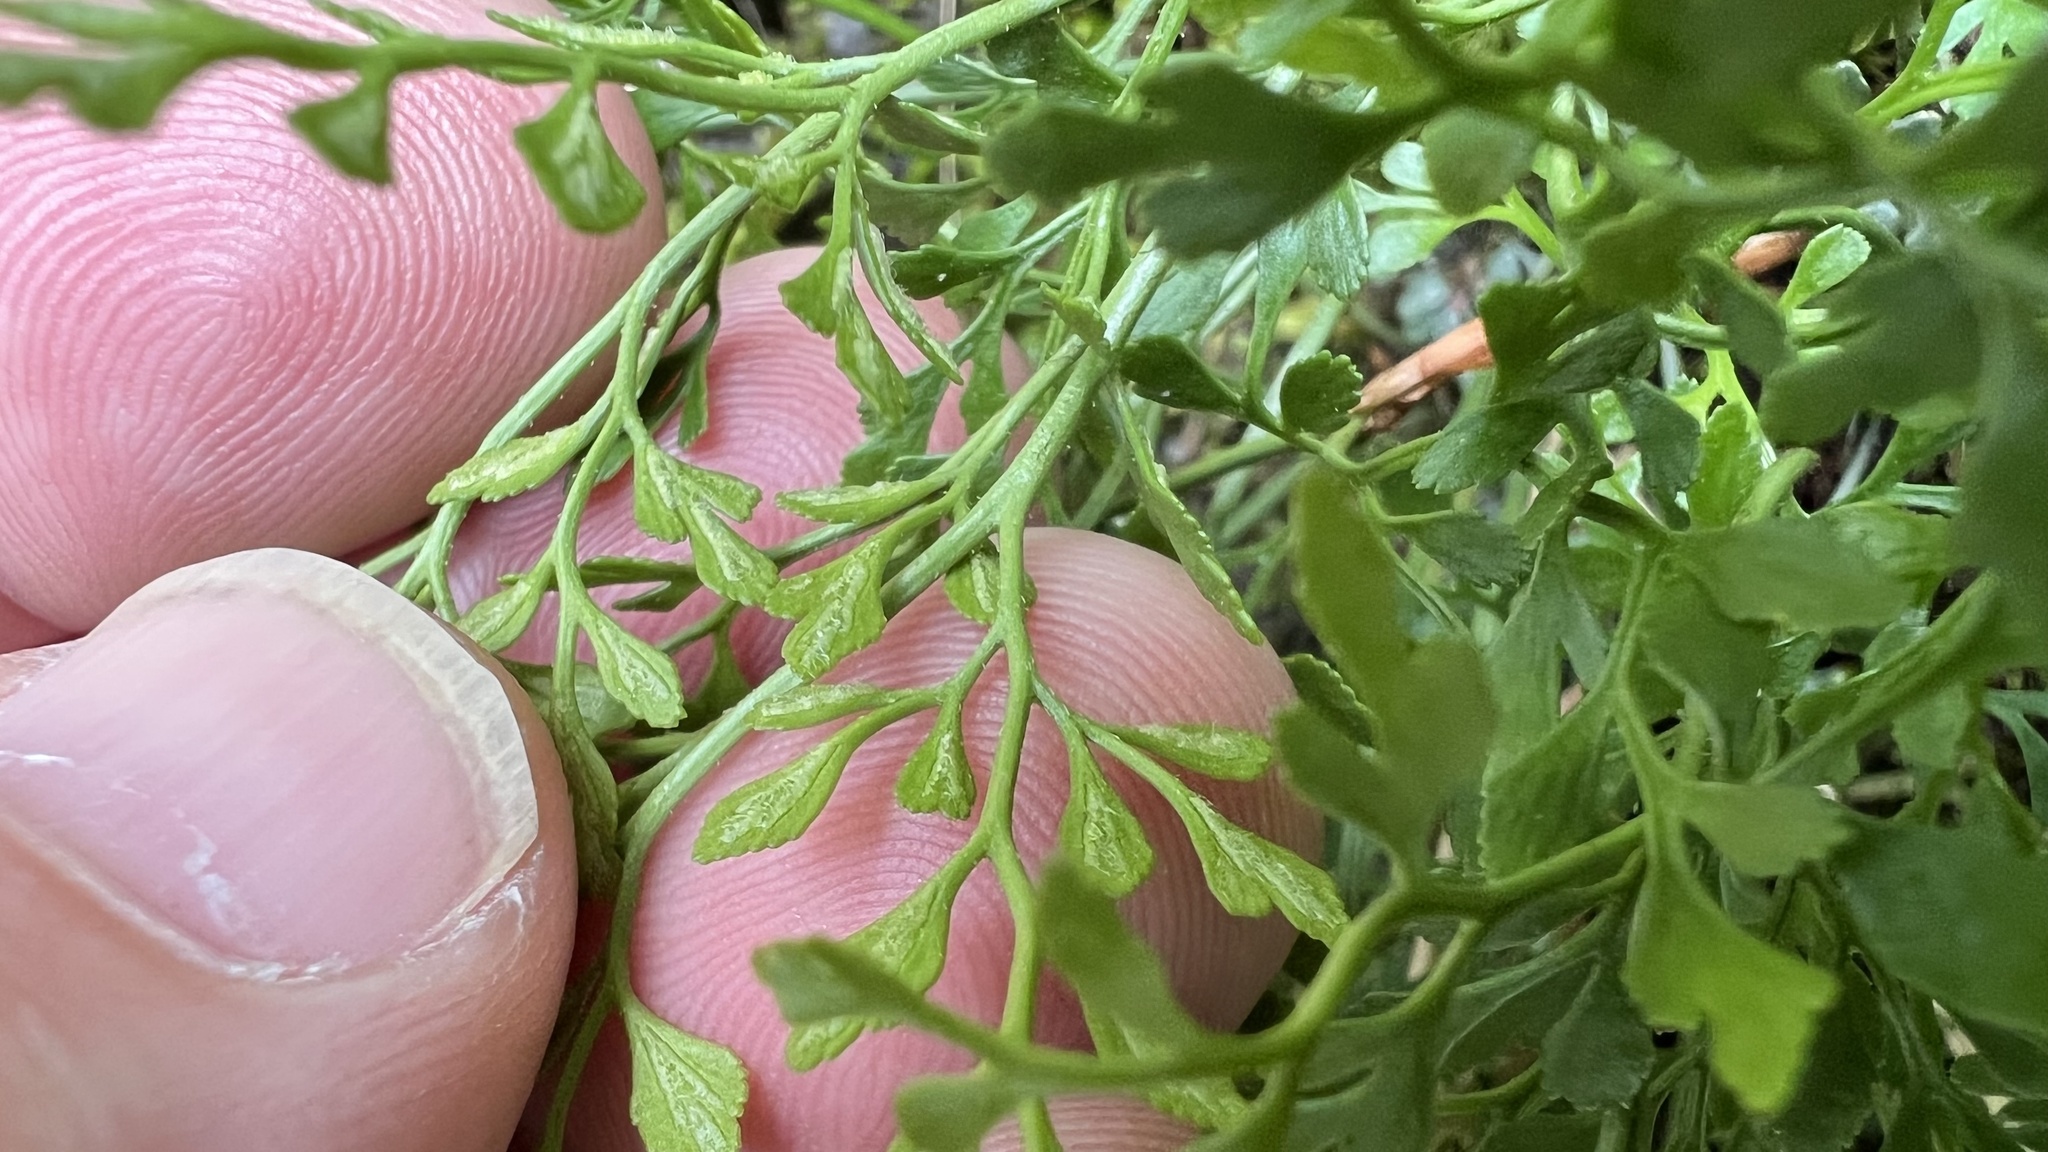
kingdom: Plantae
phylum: Tracheophyta
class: Polypodiopsida
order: Polypodiales
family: Aspleniaceae
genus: Asplenium
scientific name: Asplenium ruta-muraria
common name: Wall-rue
